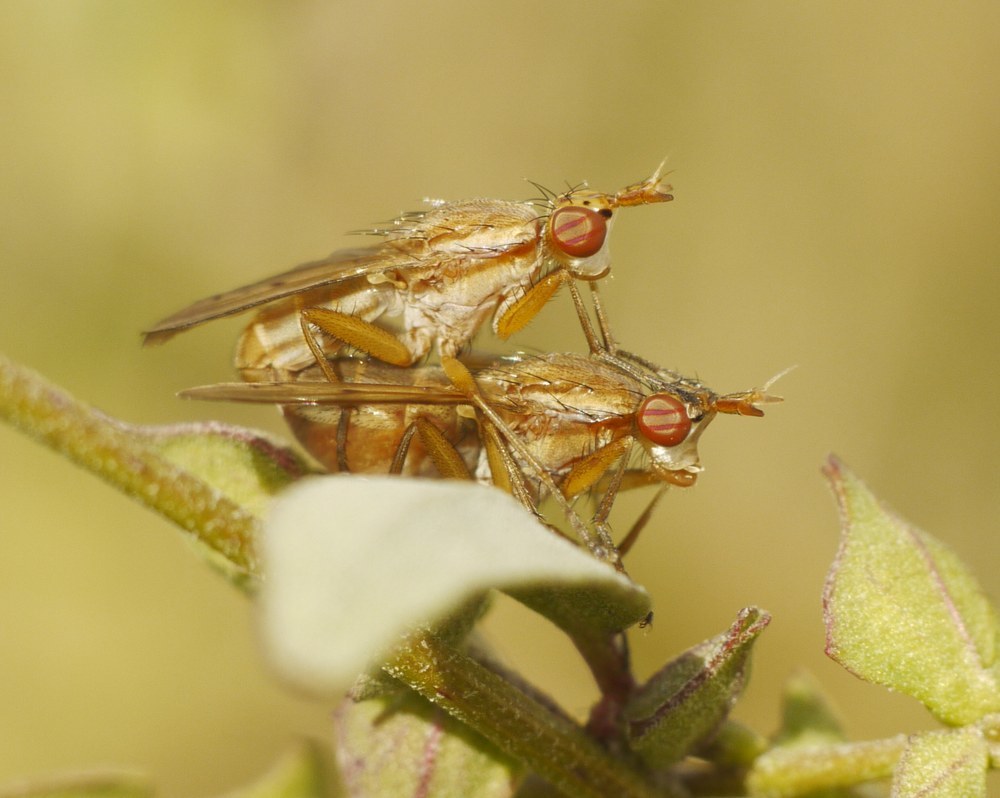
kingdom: Animalia
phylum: Arthropoda
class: Insecta
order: Diptera
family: Sciomyzidae
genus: Ilione
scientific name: Ilione
